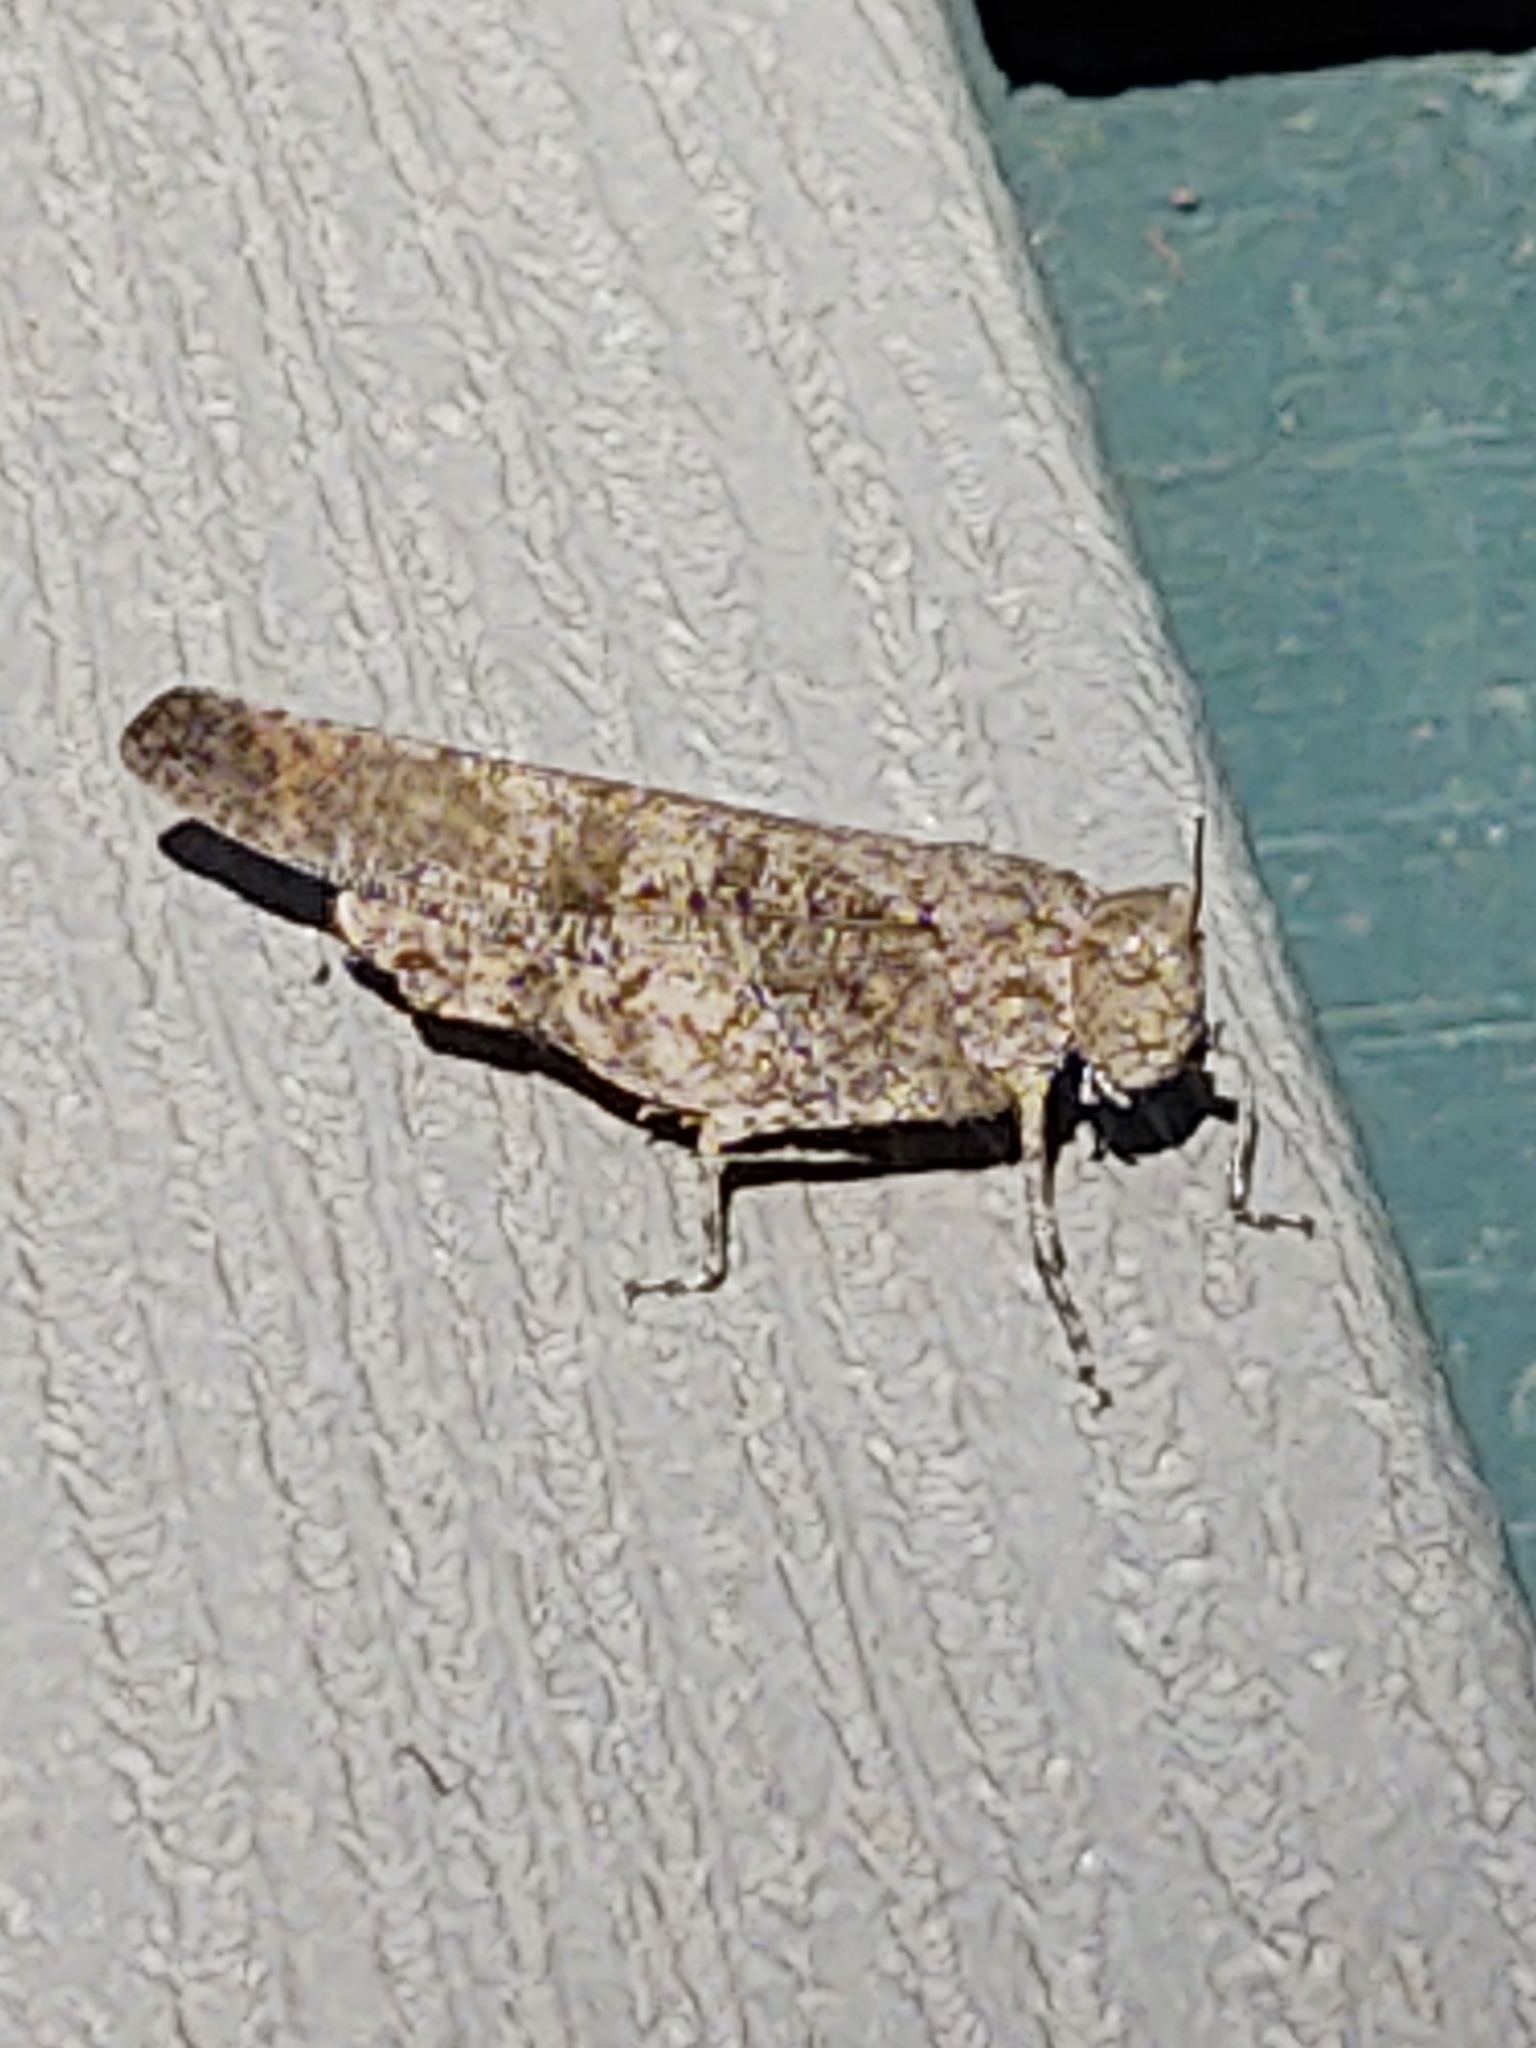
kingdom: Animalia
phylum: Arthropoda
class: Insecta
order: Orthoptera
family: Acrididae
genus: Dissosteira
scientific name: Dissosteira carolina
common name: Carolina grasshopper
